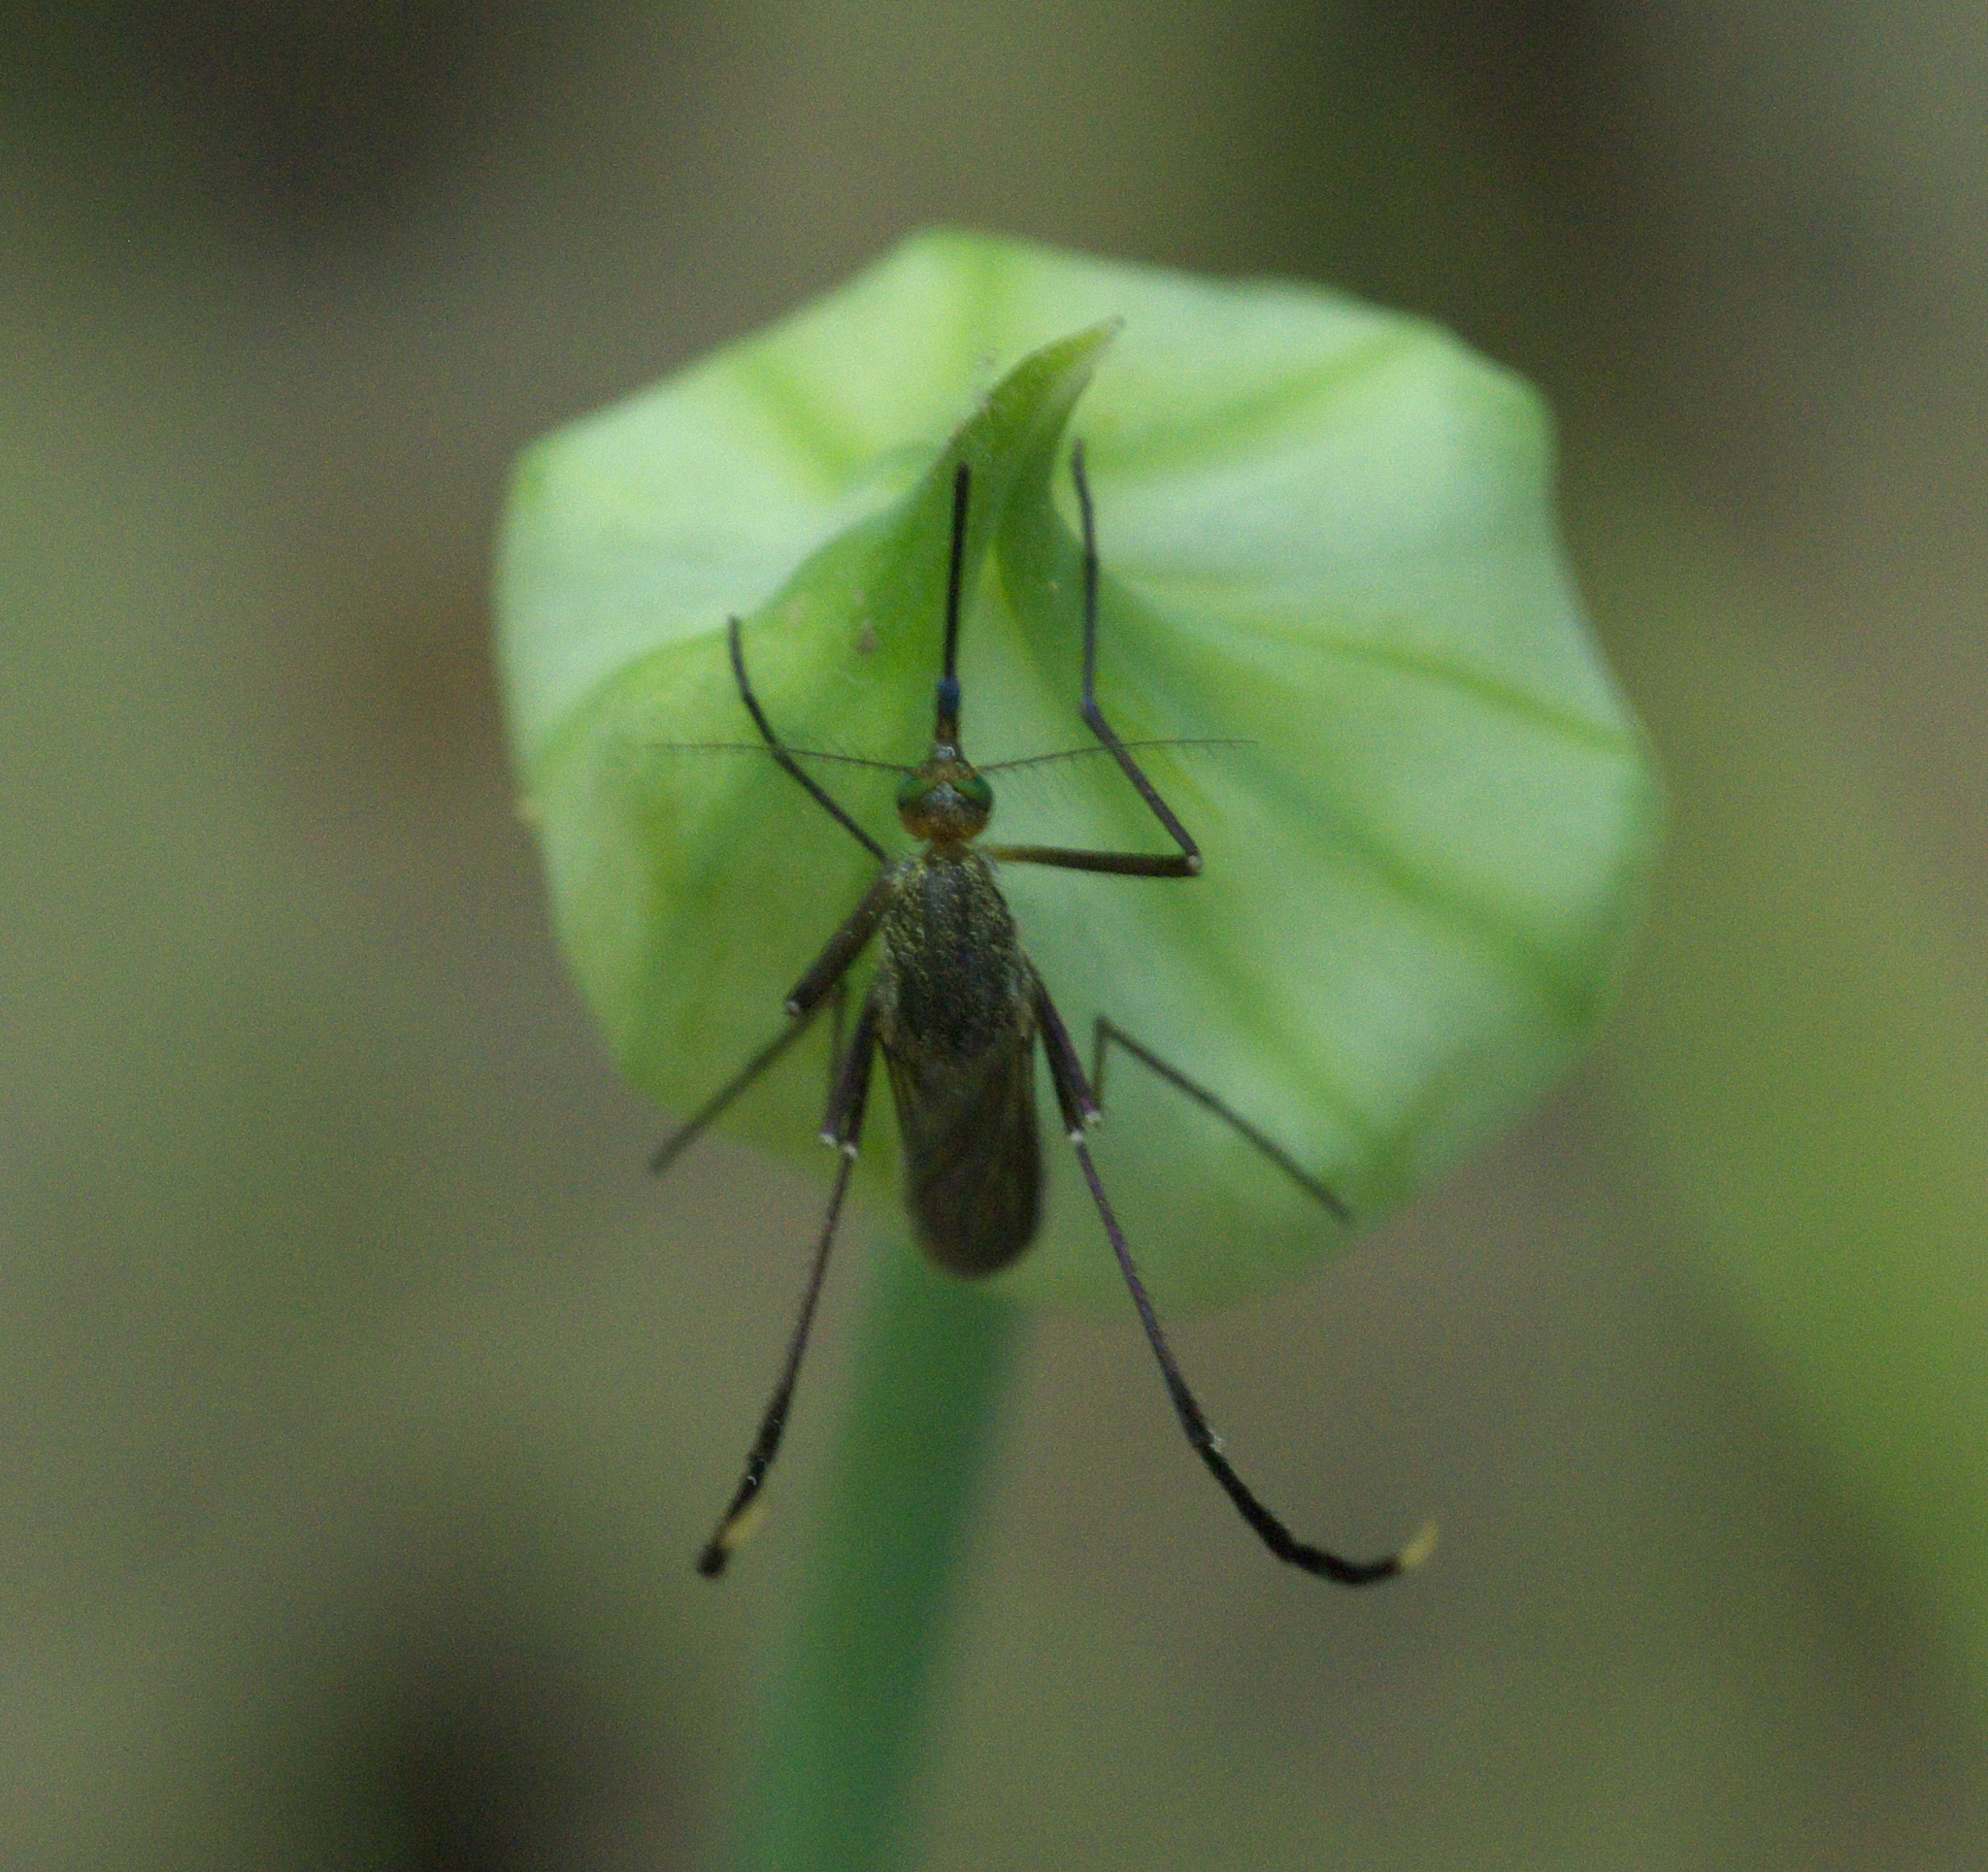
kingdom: Animalia
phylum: Arthropoda
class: Insecta
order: Diptera
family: Culicidae
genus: Psorophora
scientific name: Psorophora ferox
